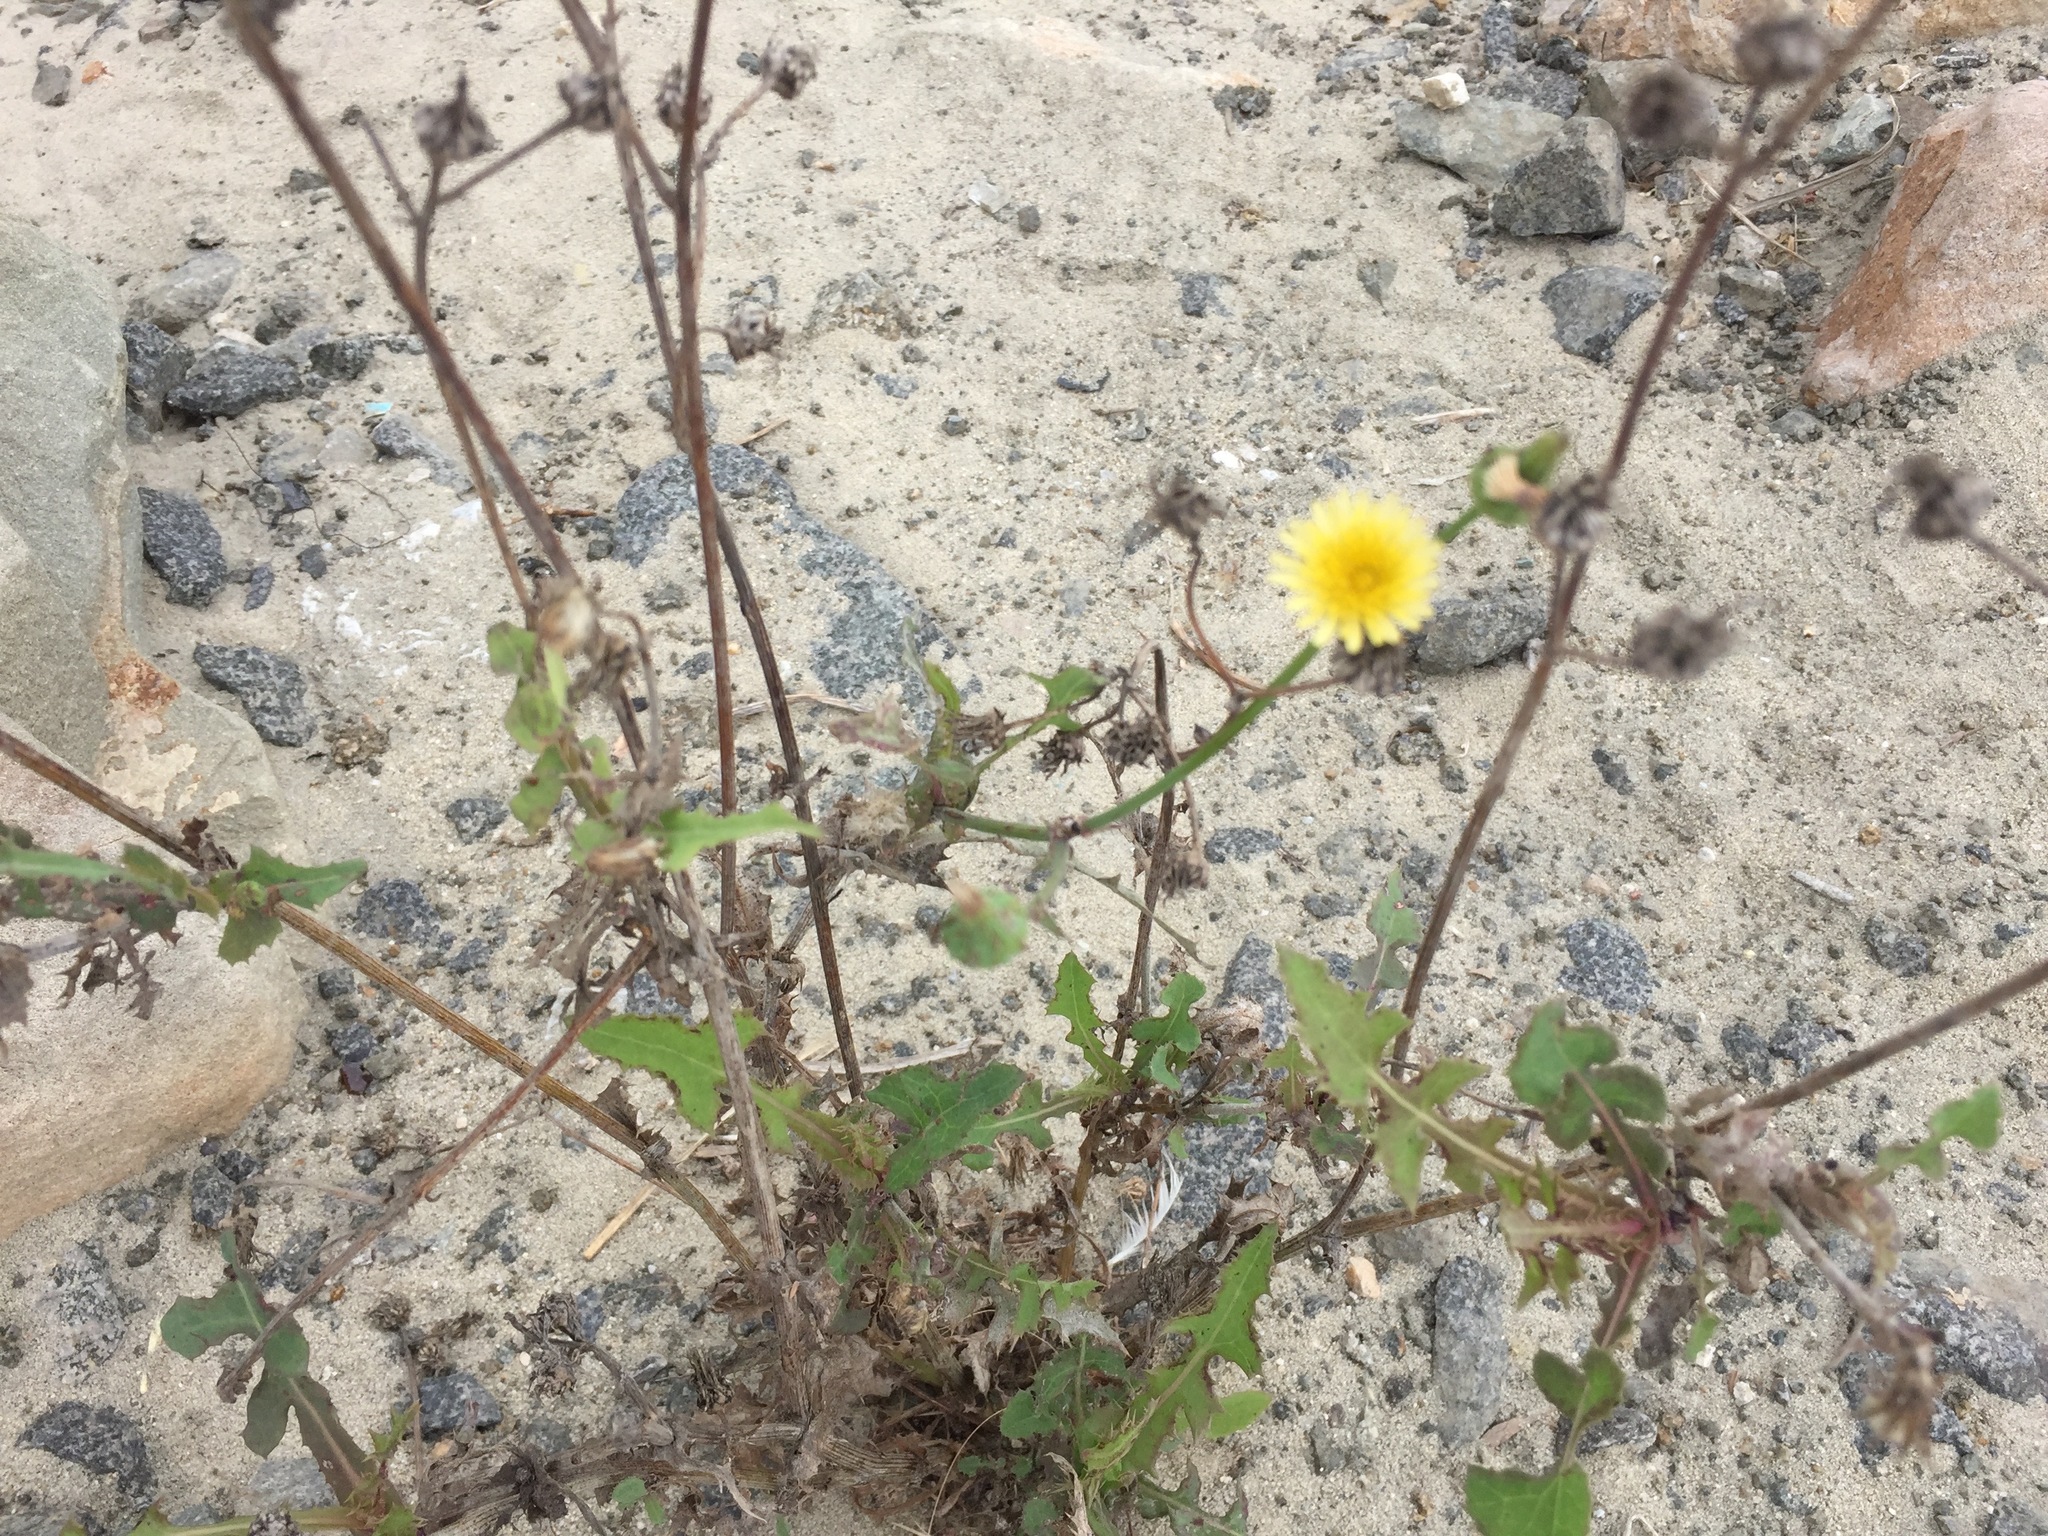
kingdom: Plantae
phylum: Tracheophyta
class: Magnoliopsida
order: Asterales
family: Asteraceae
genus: Sonchus
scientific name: Sonchus oleraceus
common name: Common sowthistle
